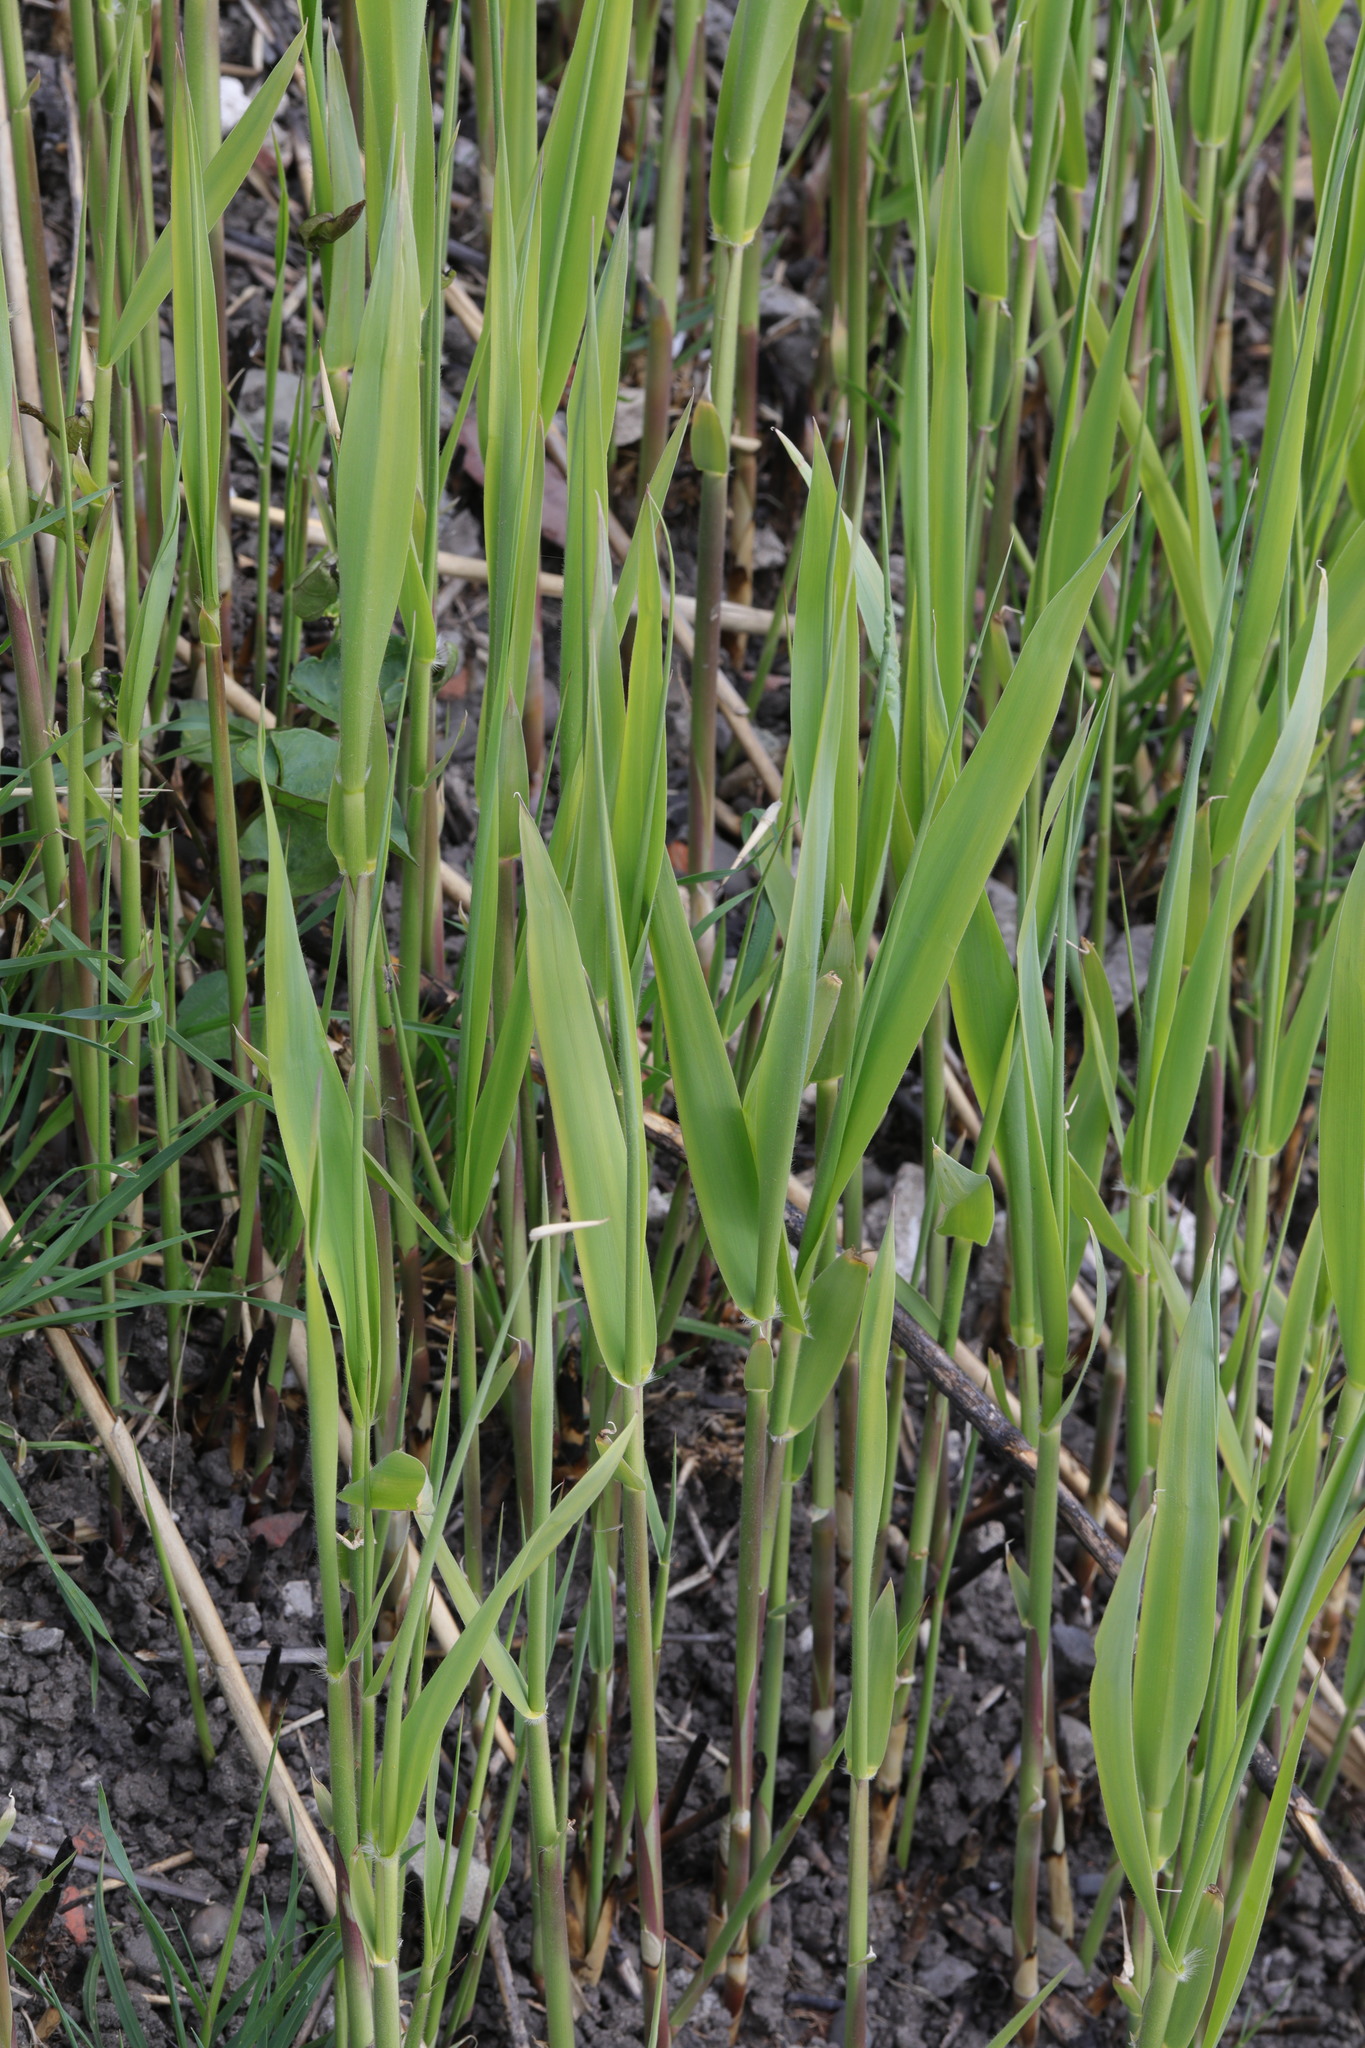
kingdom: Plantae
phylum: Tracheophyta
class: Liliopsida
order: Poales
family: Poaceae
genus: Phragmites
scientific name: Phragmites australis
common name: Common reed
